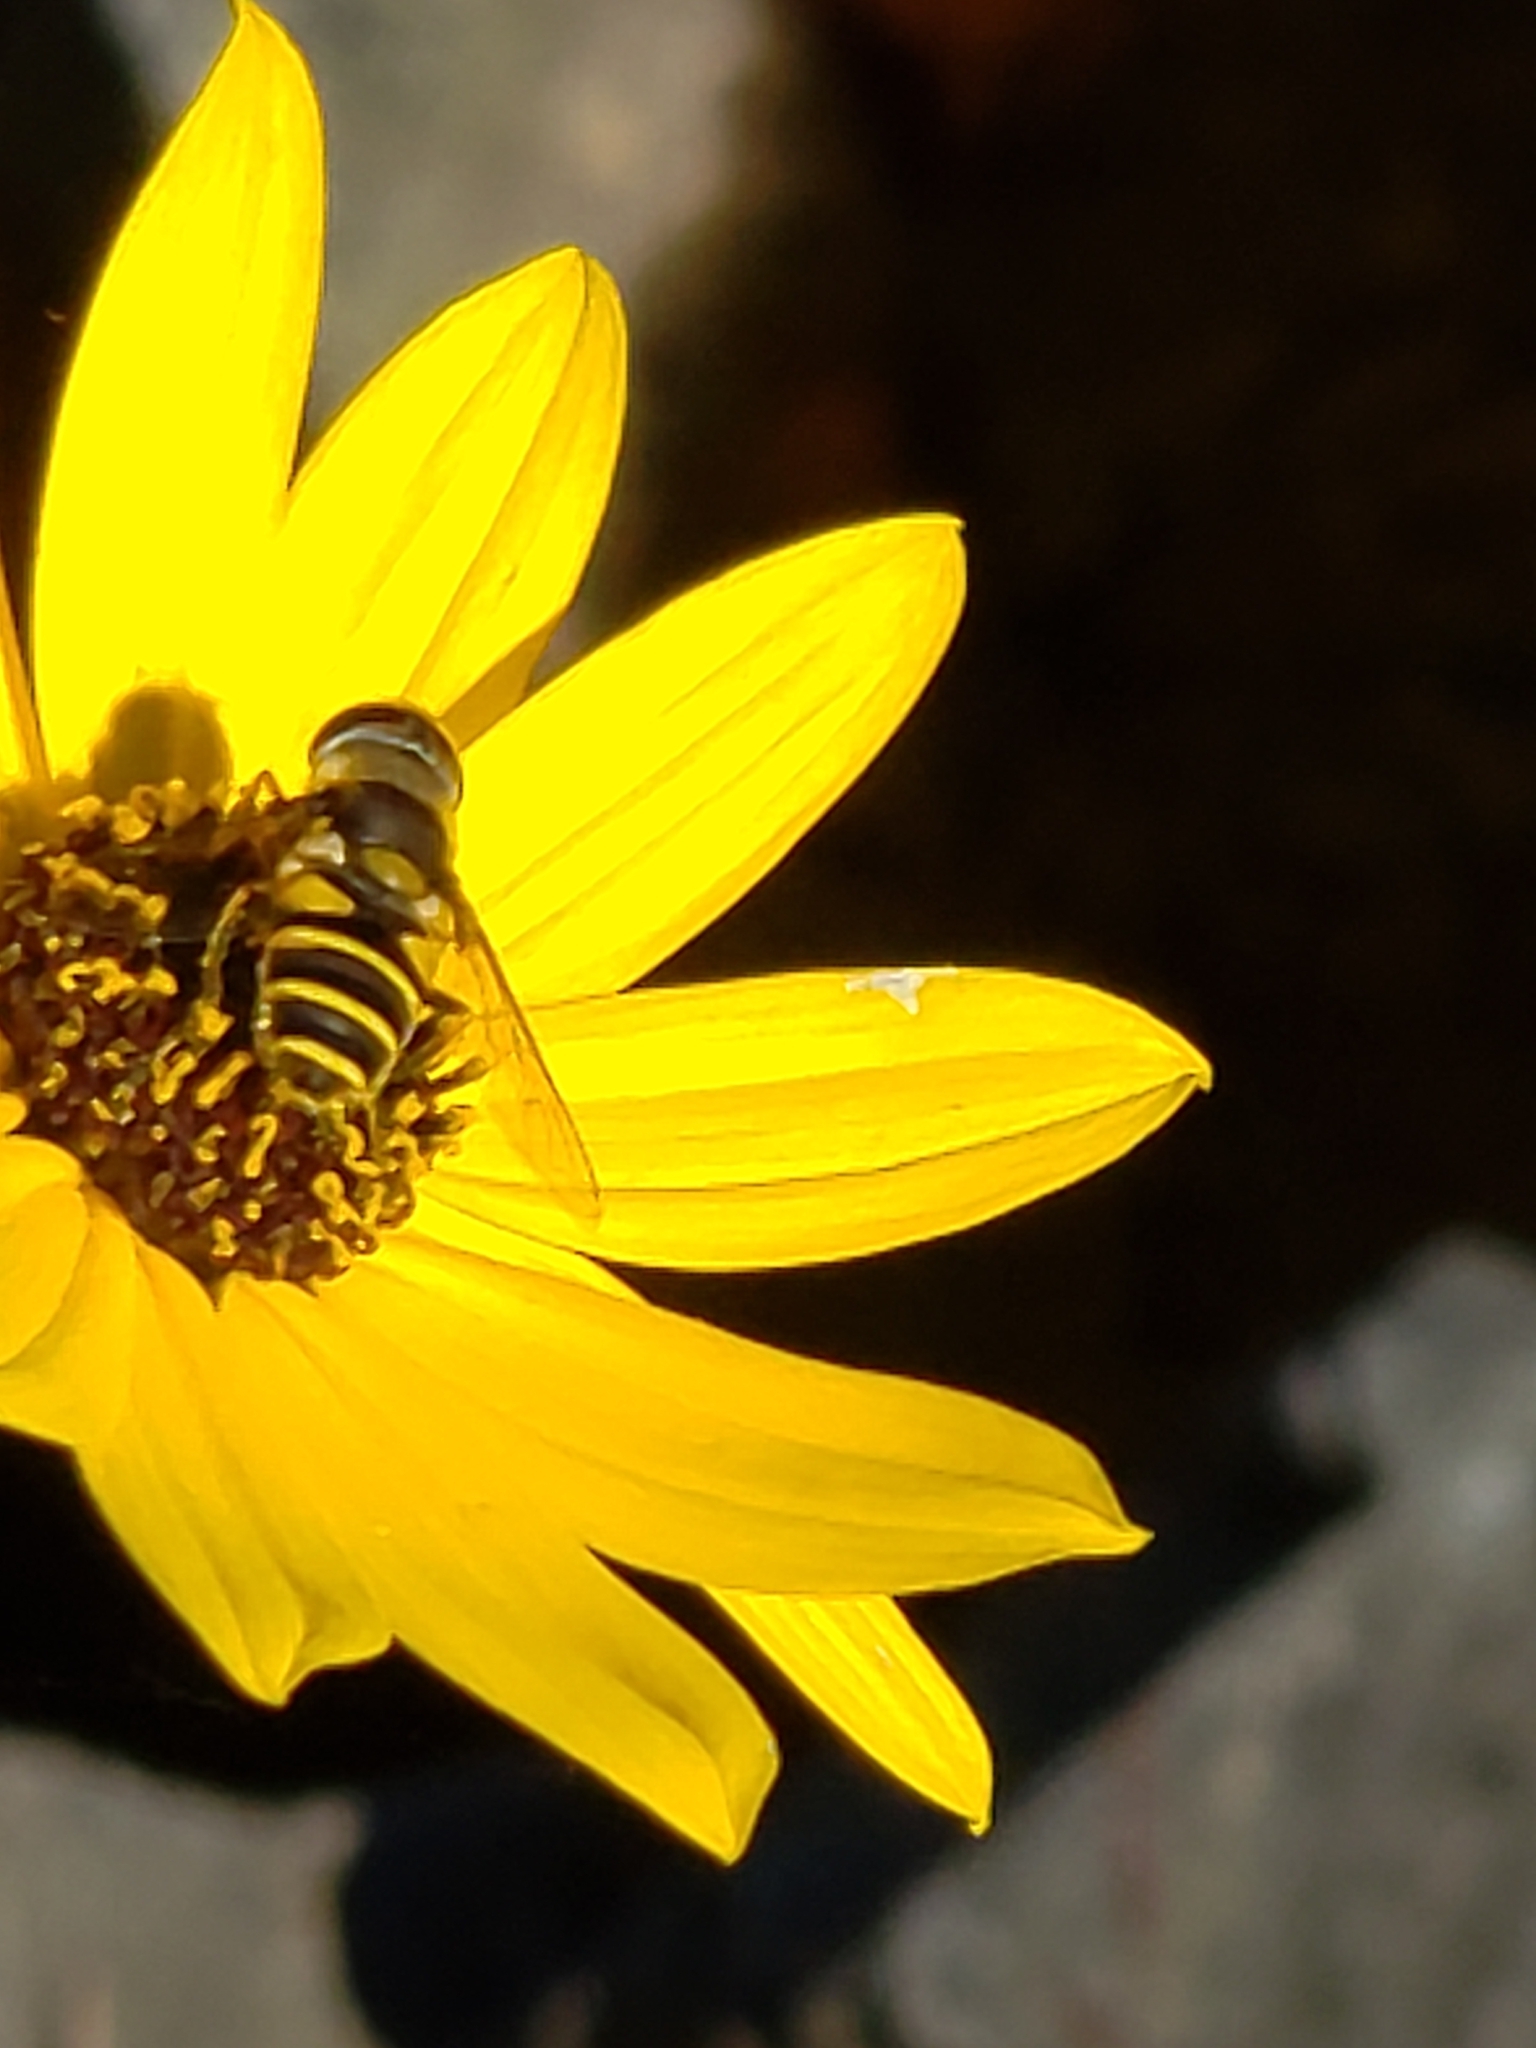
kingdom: Animalia
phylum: Arthropoda
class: Insecta
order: Diptera
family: Syrphidae
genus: Eristalis
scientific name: Eristalis transversa
